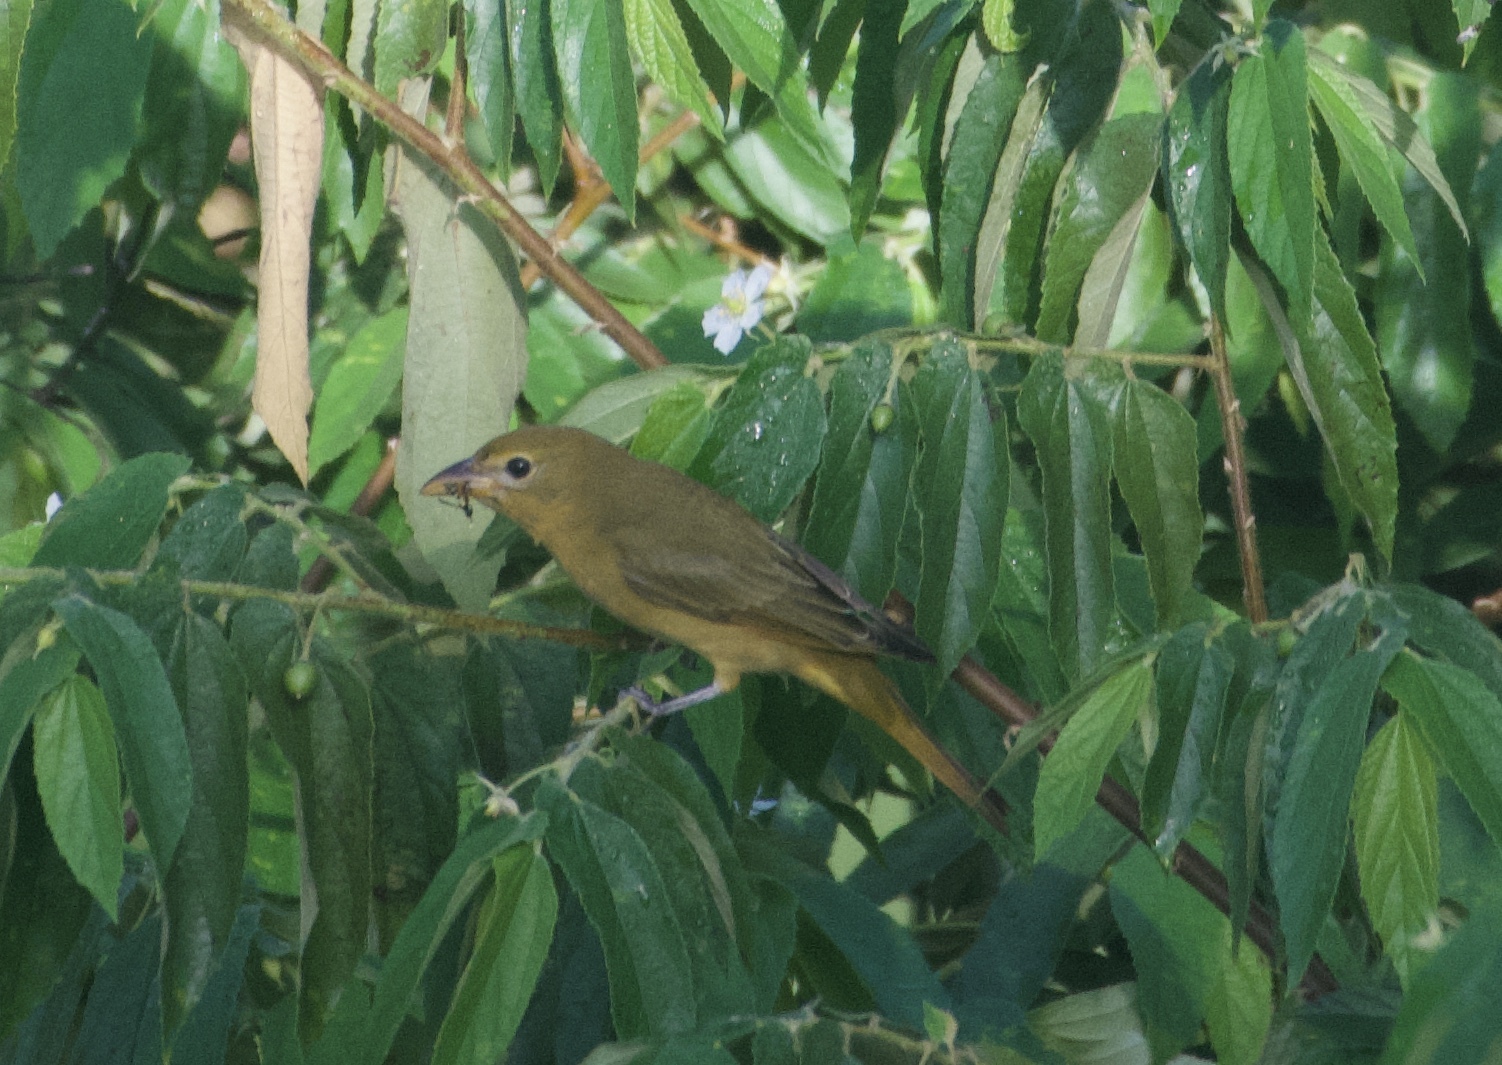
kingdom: Animalia
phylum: Chordata
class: Aves
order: Passeriformes
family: Cardinalidae
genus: Piranga
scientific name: Piranga rubra
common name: Summer tanager
